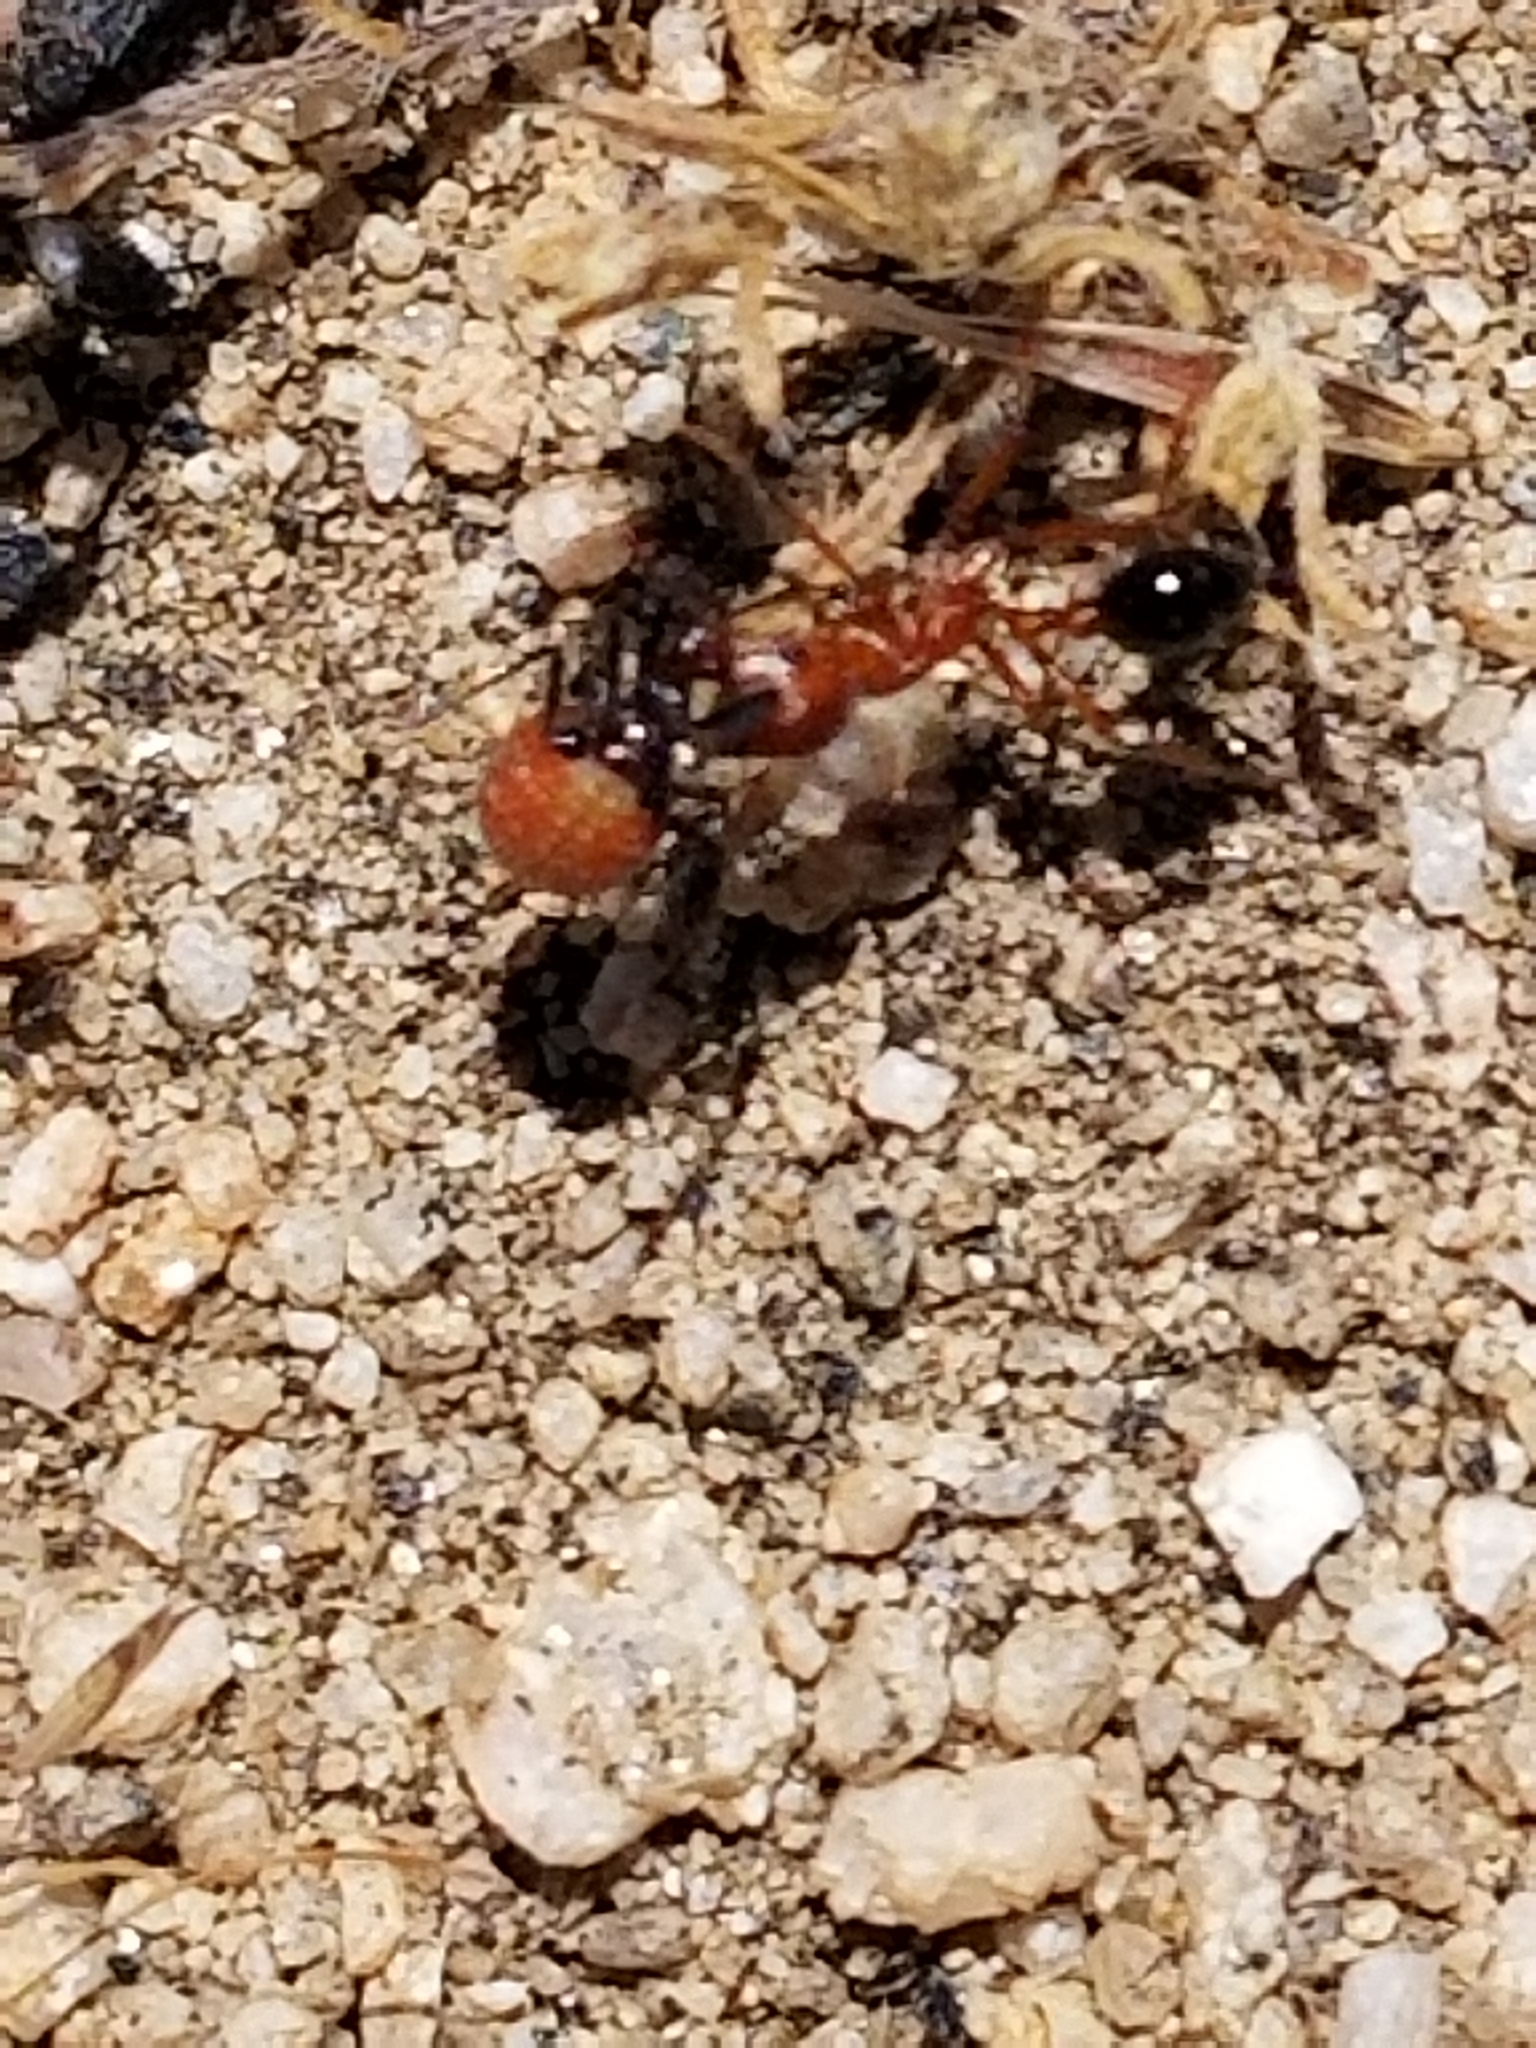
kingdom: Animalia
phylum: Arthropoda
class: Insecta
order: Hymenoptera
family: Formicidae
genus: Pogonomyrmex
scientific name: Pogonomyrmex californicus
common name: California harvester ant
